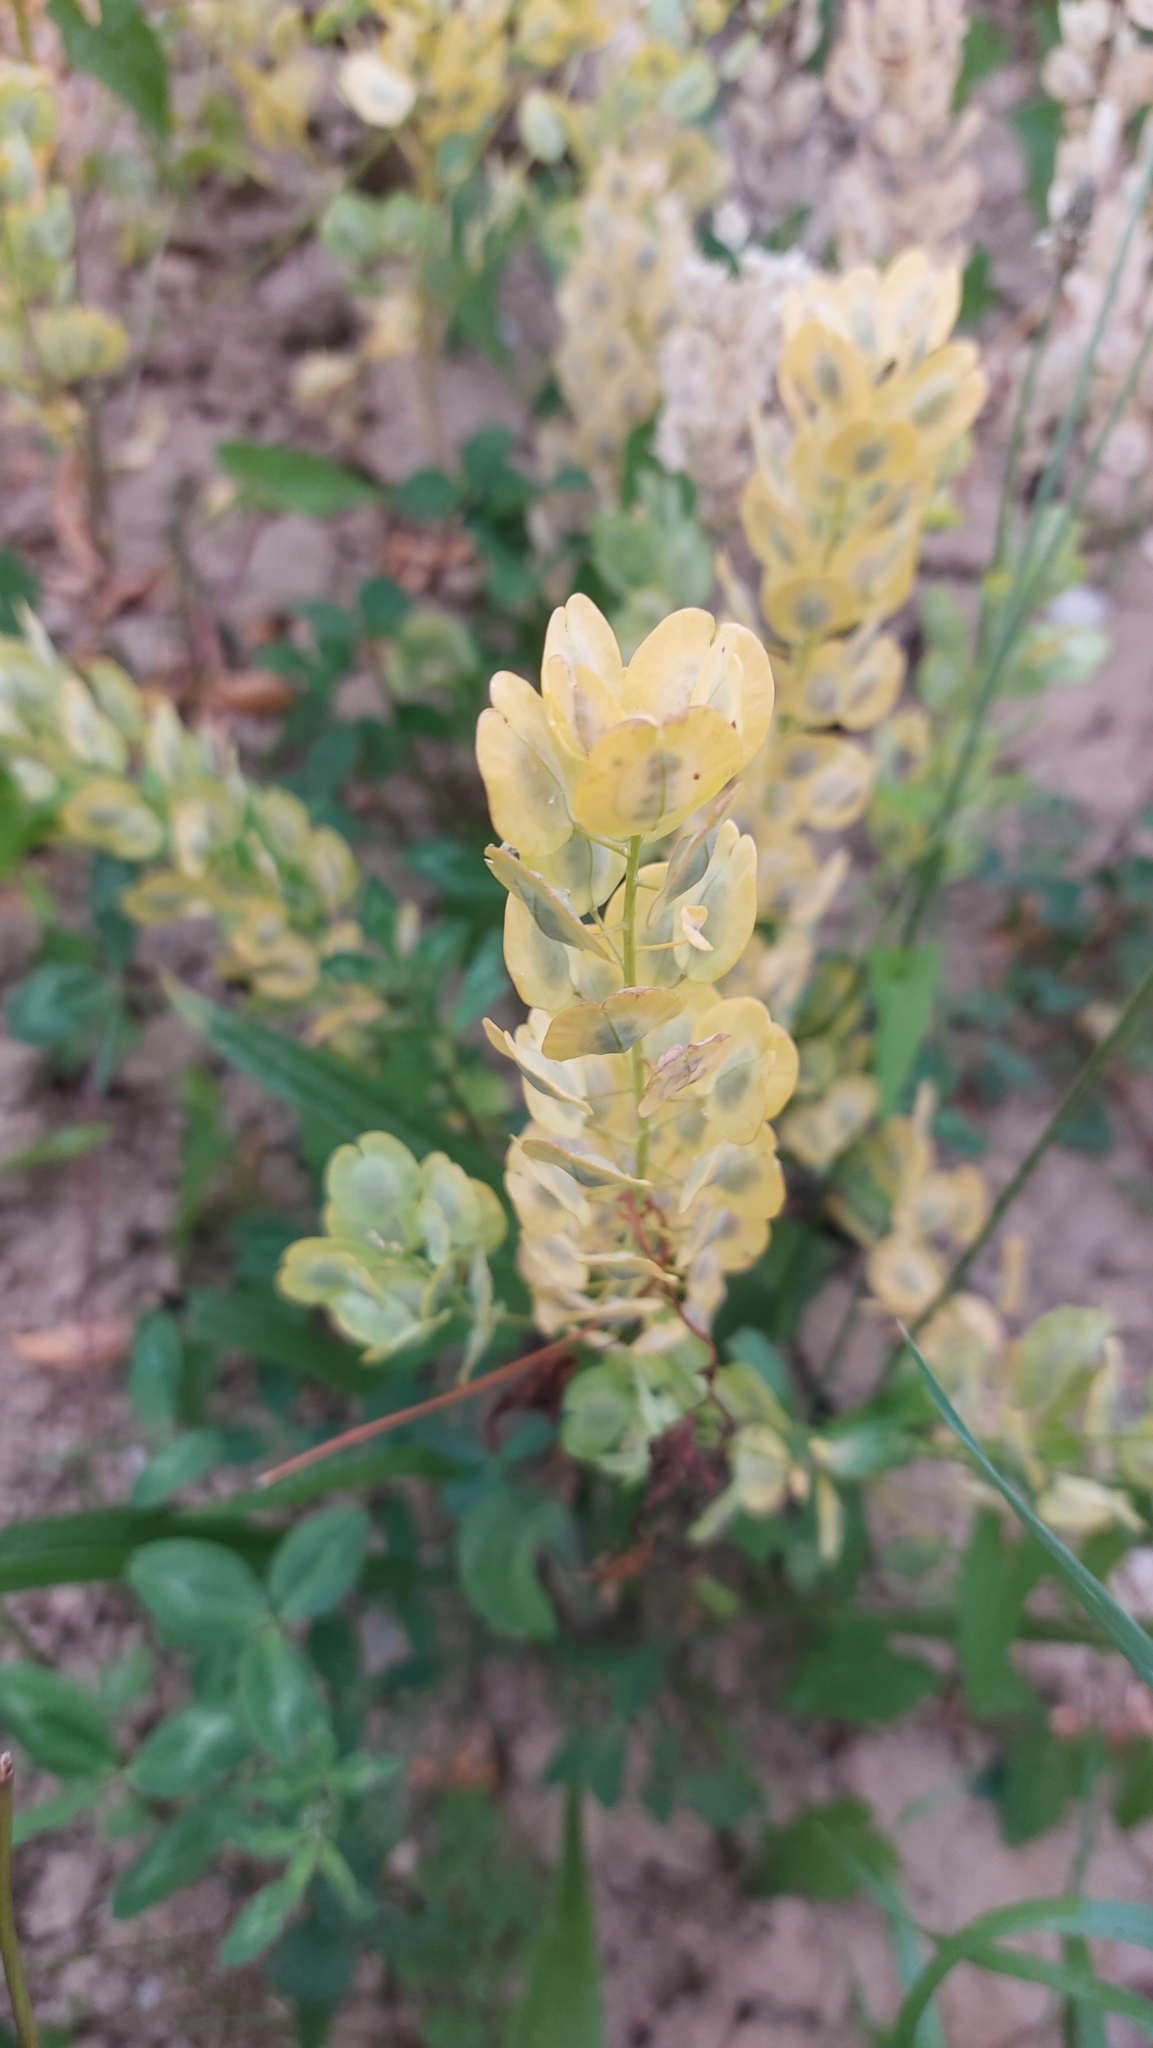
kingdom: Plantae
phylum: Tracheophyta
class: Magnoliopsida
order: Brassicales
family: Brassicaceae
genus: Thlaspi
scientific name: Thlaspi arvense
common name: Field pennycress
